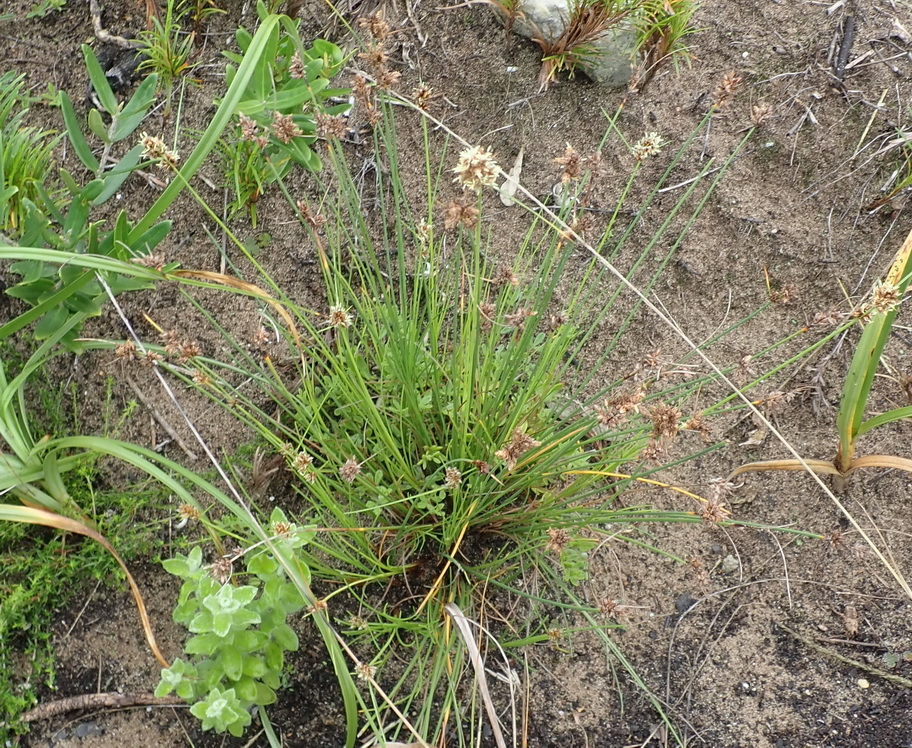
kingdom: Plantae
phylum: Tracheophyta
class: Liliopsida
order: Poales
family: Cyperaceae
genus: Ficinia
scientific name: Ficinia laciniata
